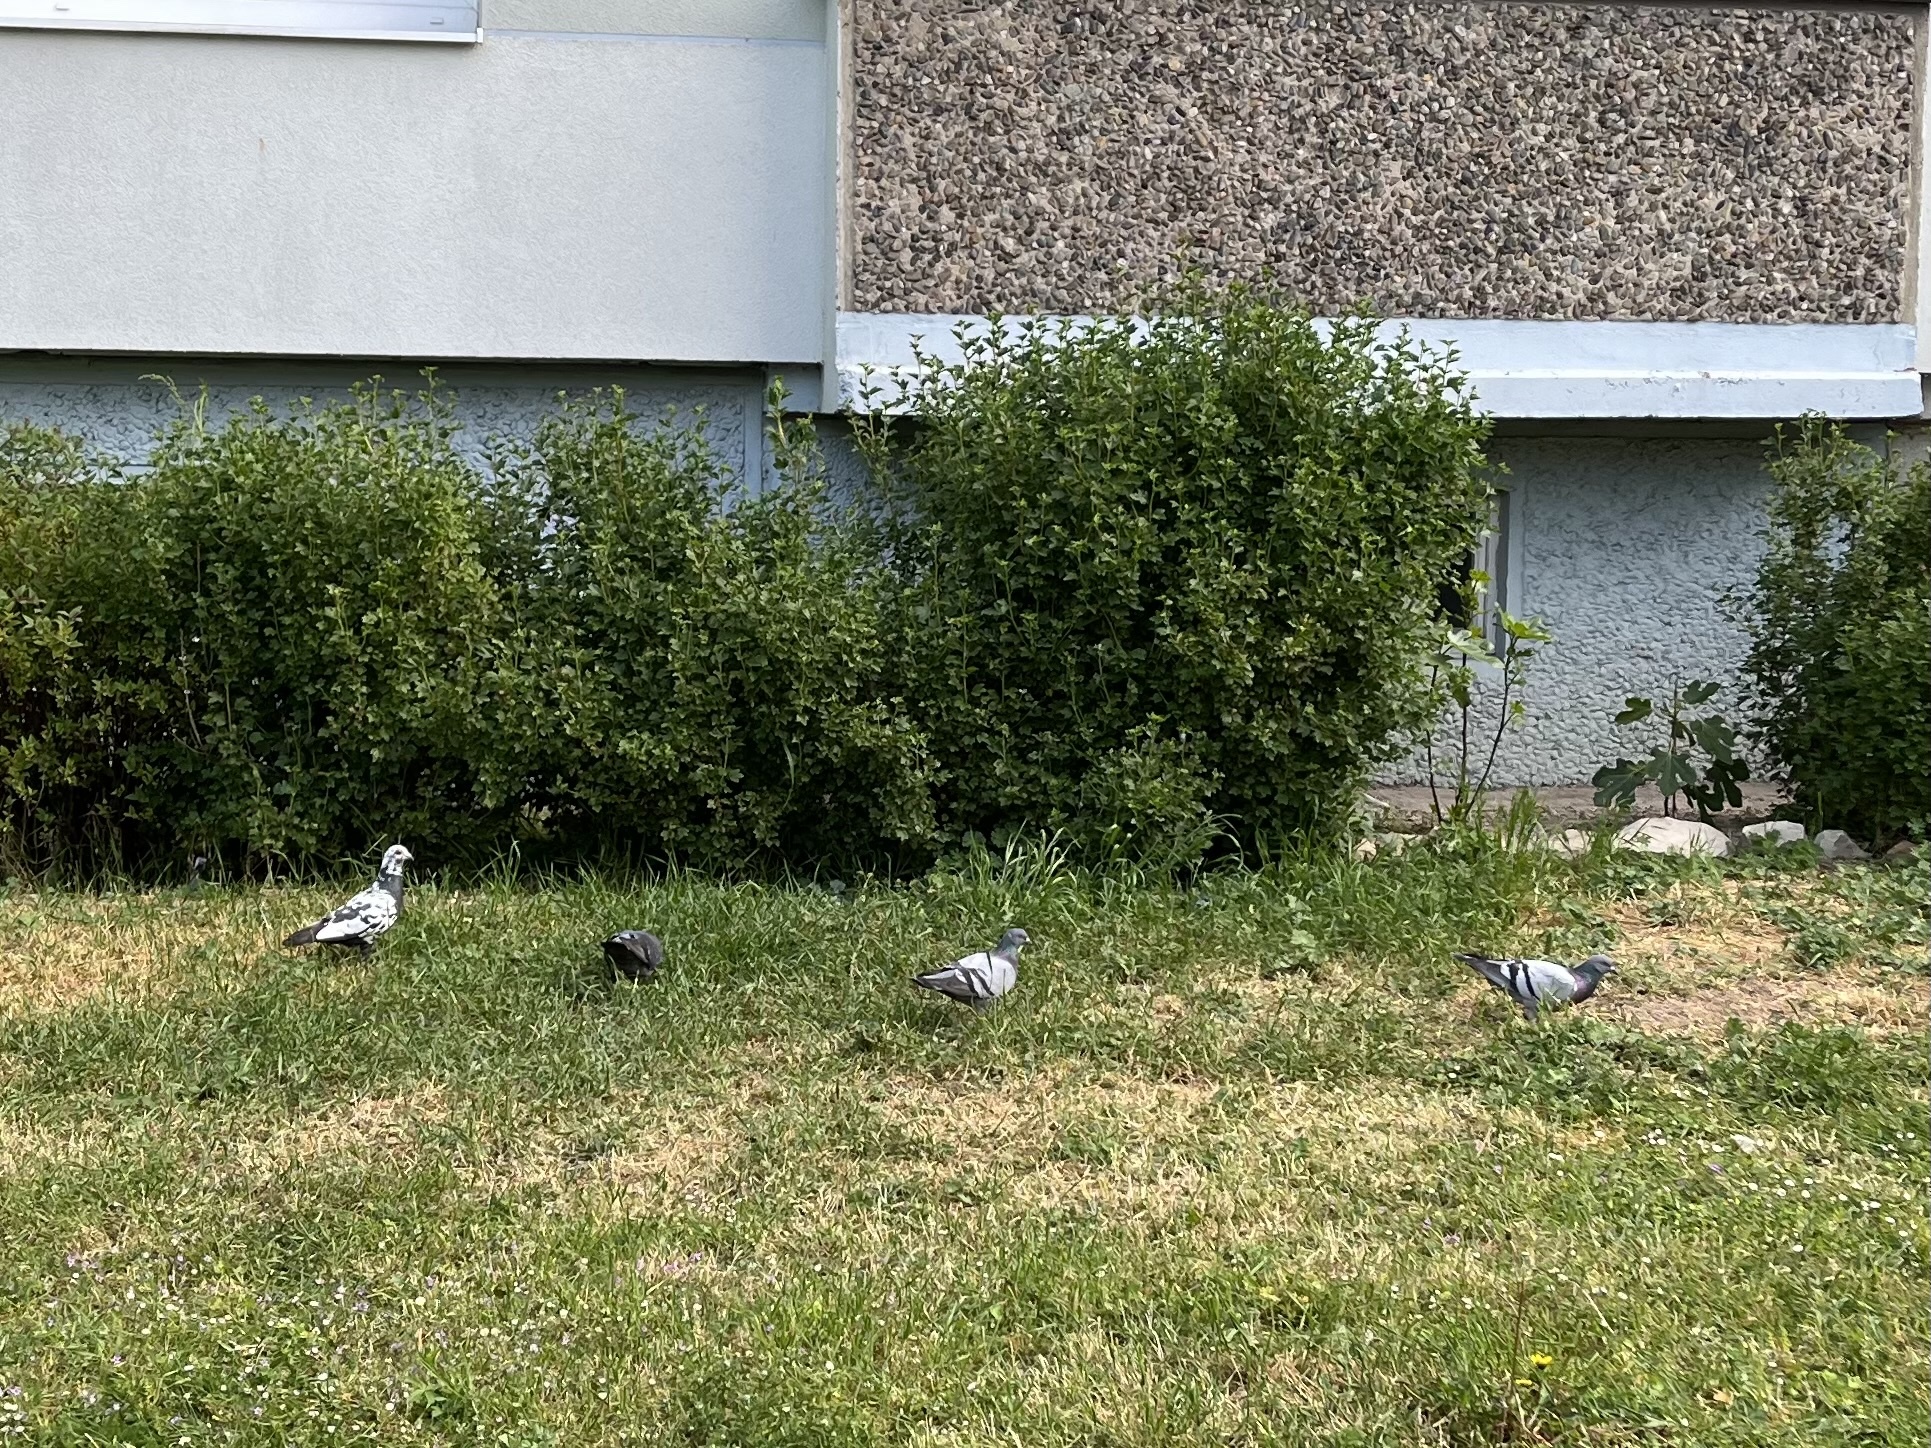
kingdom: Animalia
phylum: Chordata
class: Aves
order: Columbiformes
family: Columbidae
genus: Columba
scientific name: Columba livia
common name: Rock pigeon
